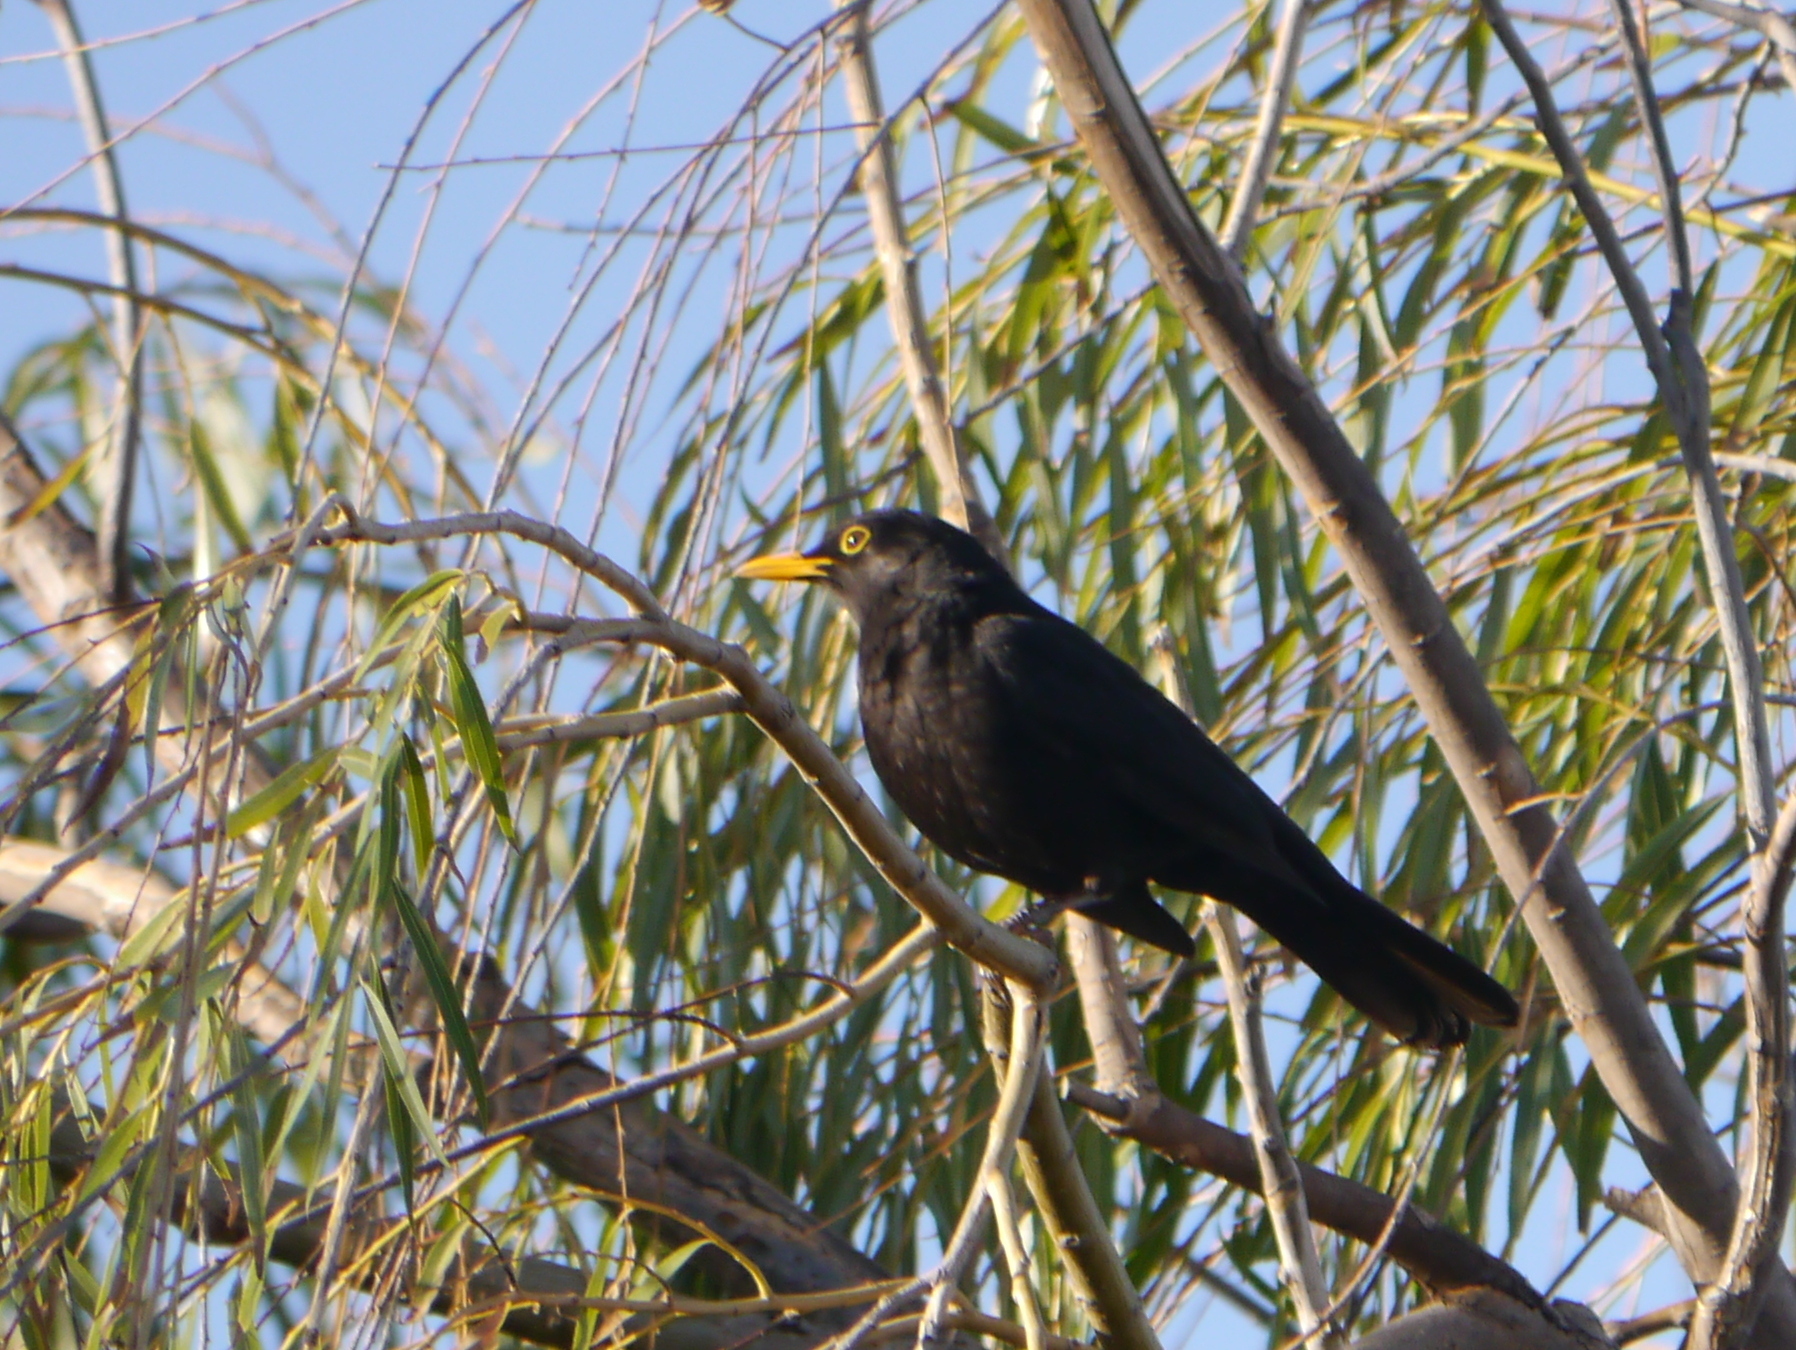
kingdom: Animalia
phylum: Chordata
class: Aves
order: Passeriformes
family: Turdidae
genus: Turdus
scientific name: Turdus merula
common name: Common blackbird
